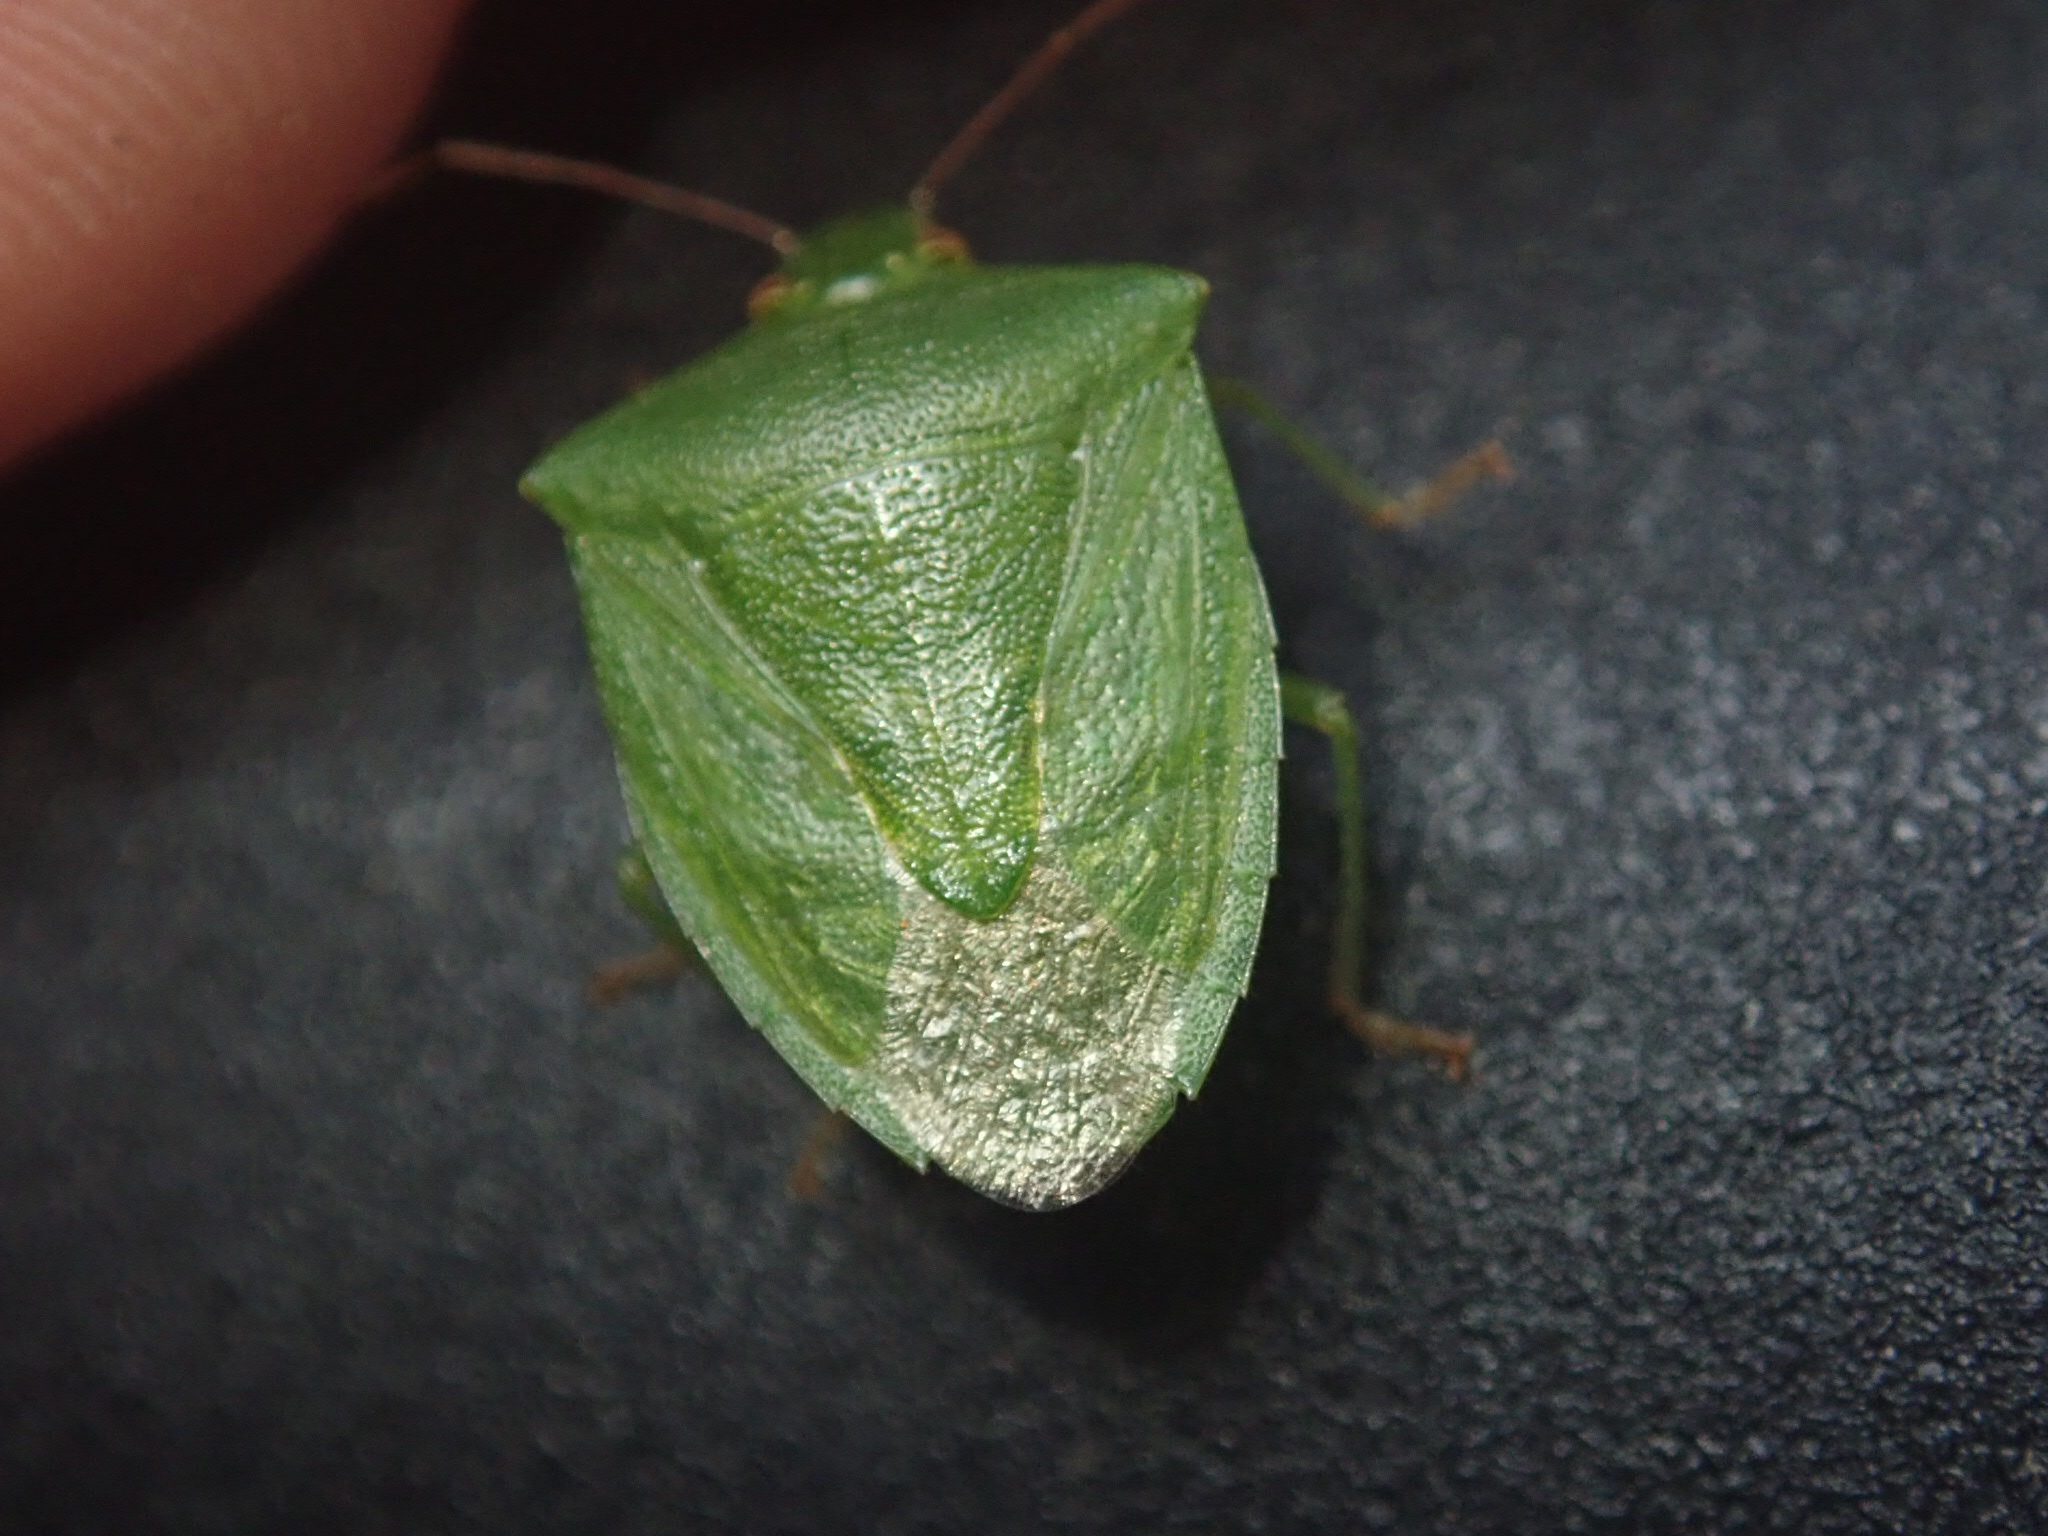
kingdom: Animalia
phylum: Arthropoda
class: Insecta
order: Hemiptera
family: Pentatomidae
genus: Cuspicona
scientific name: Cuspicona simplex
